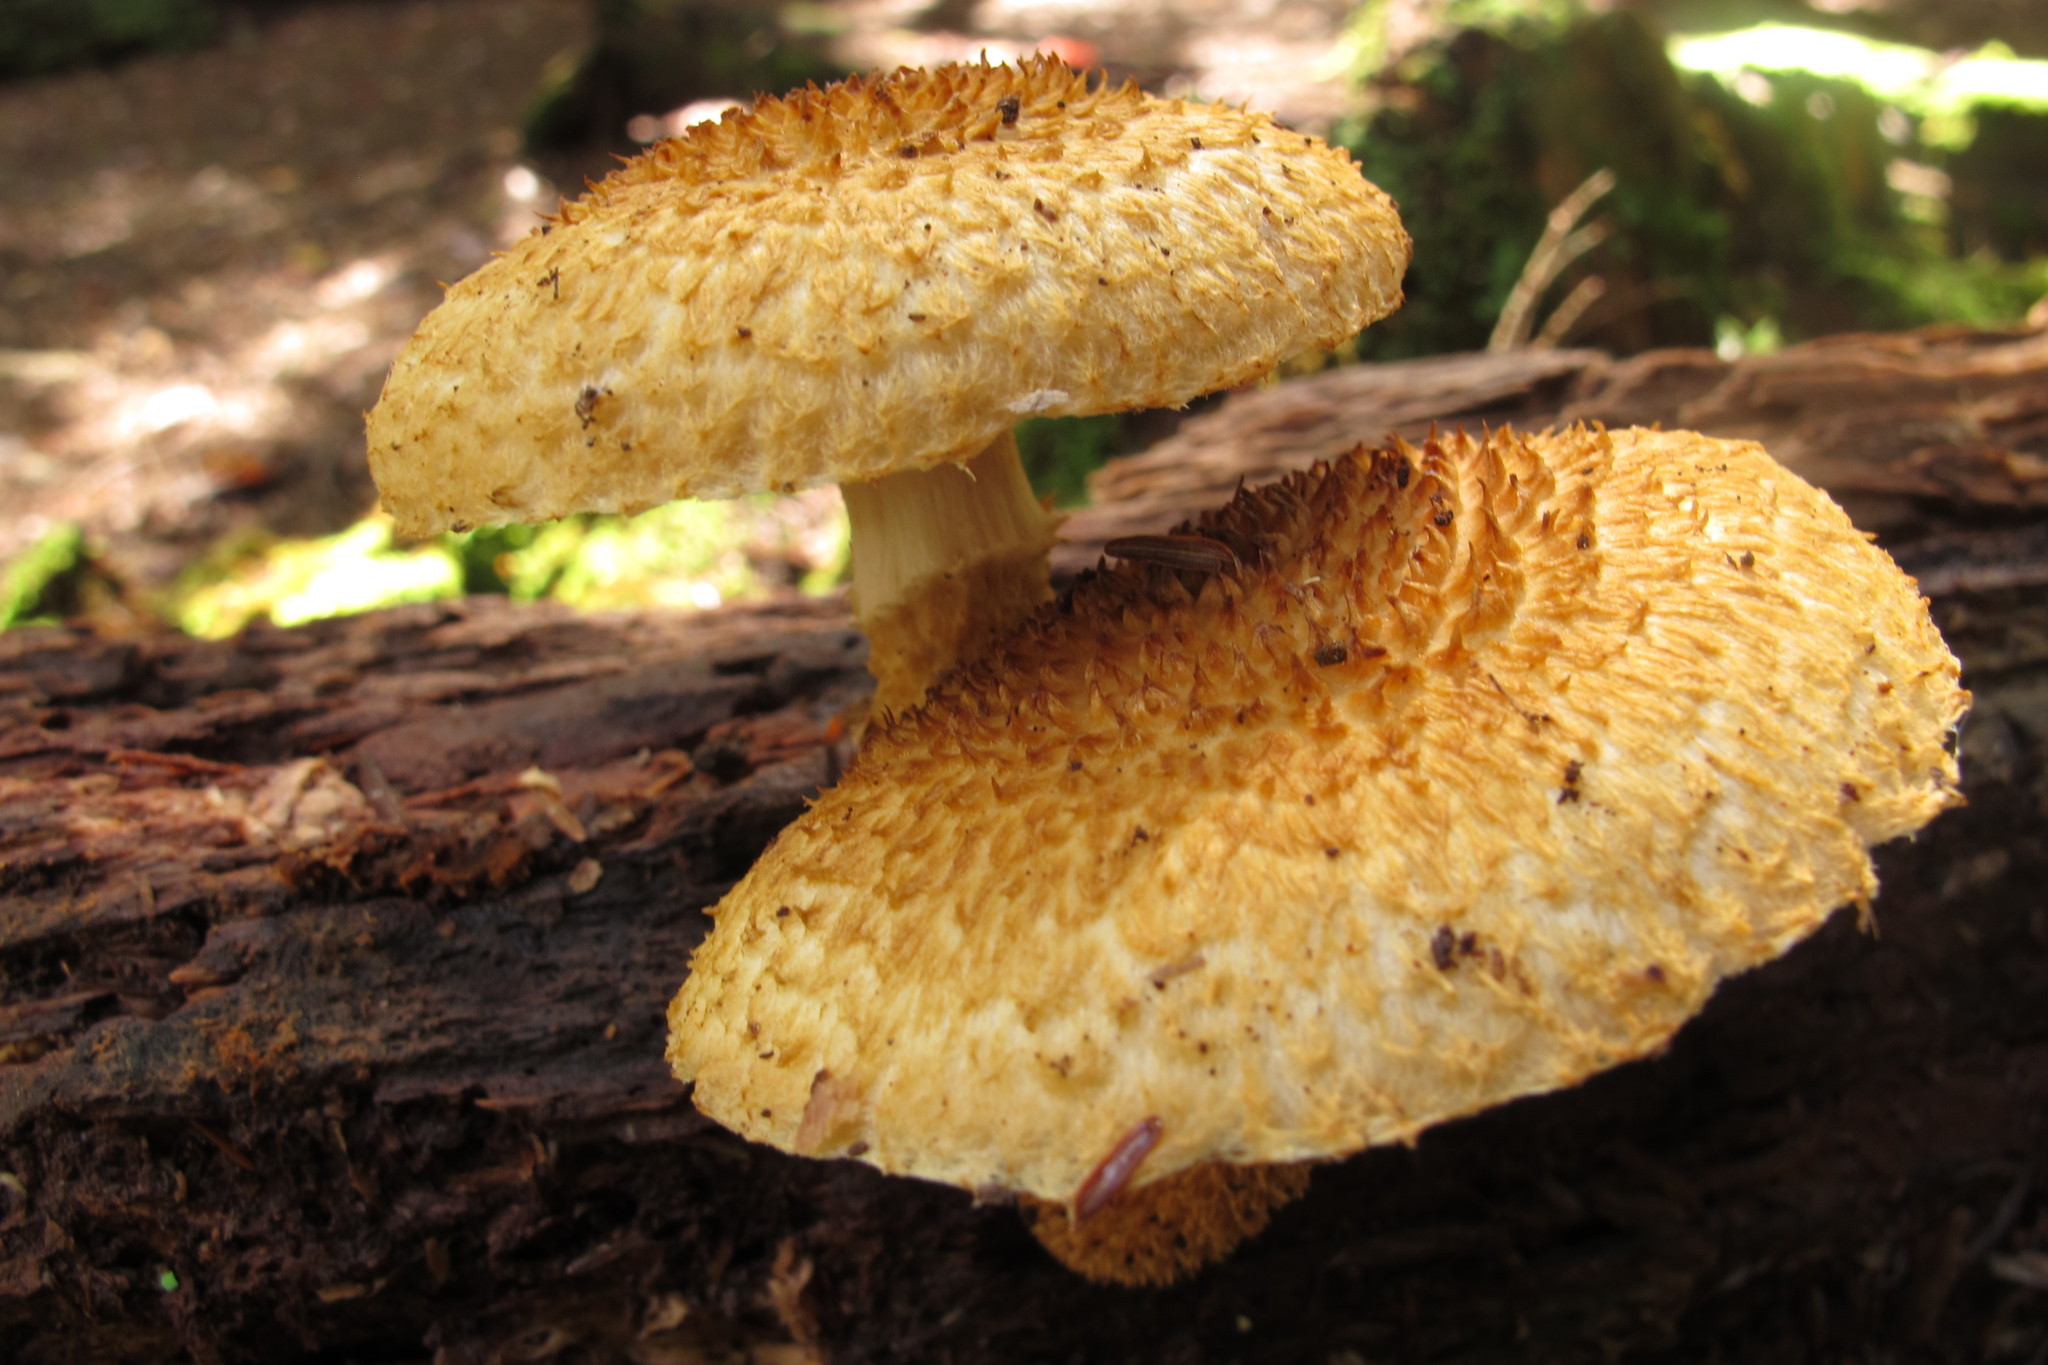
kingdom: Fungi
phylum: Basidiomycota
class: Agaricomycetes
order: Agaricales
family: Agaricaceae
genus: Leucopholiota
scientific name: Leucopholiota decorosa
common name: Decorated pholiota
